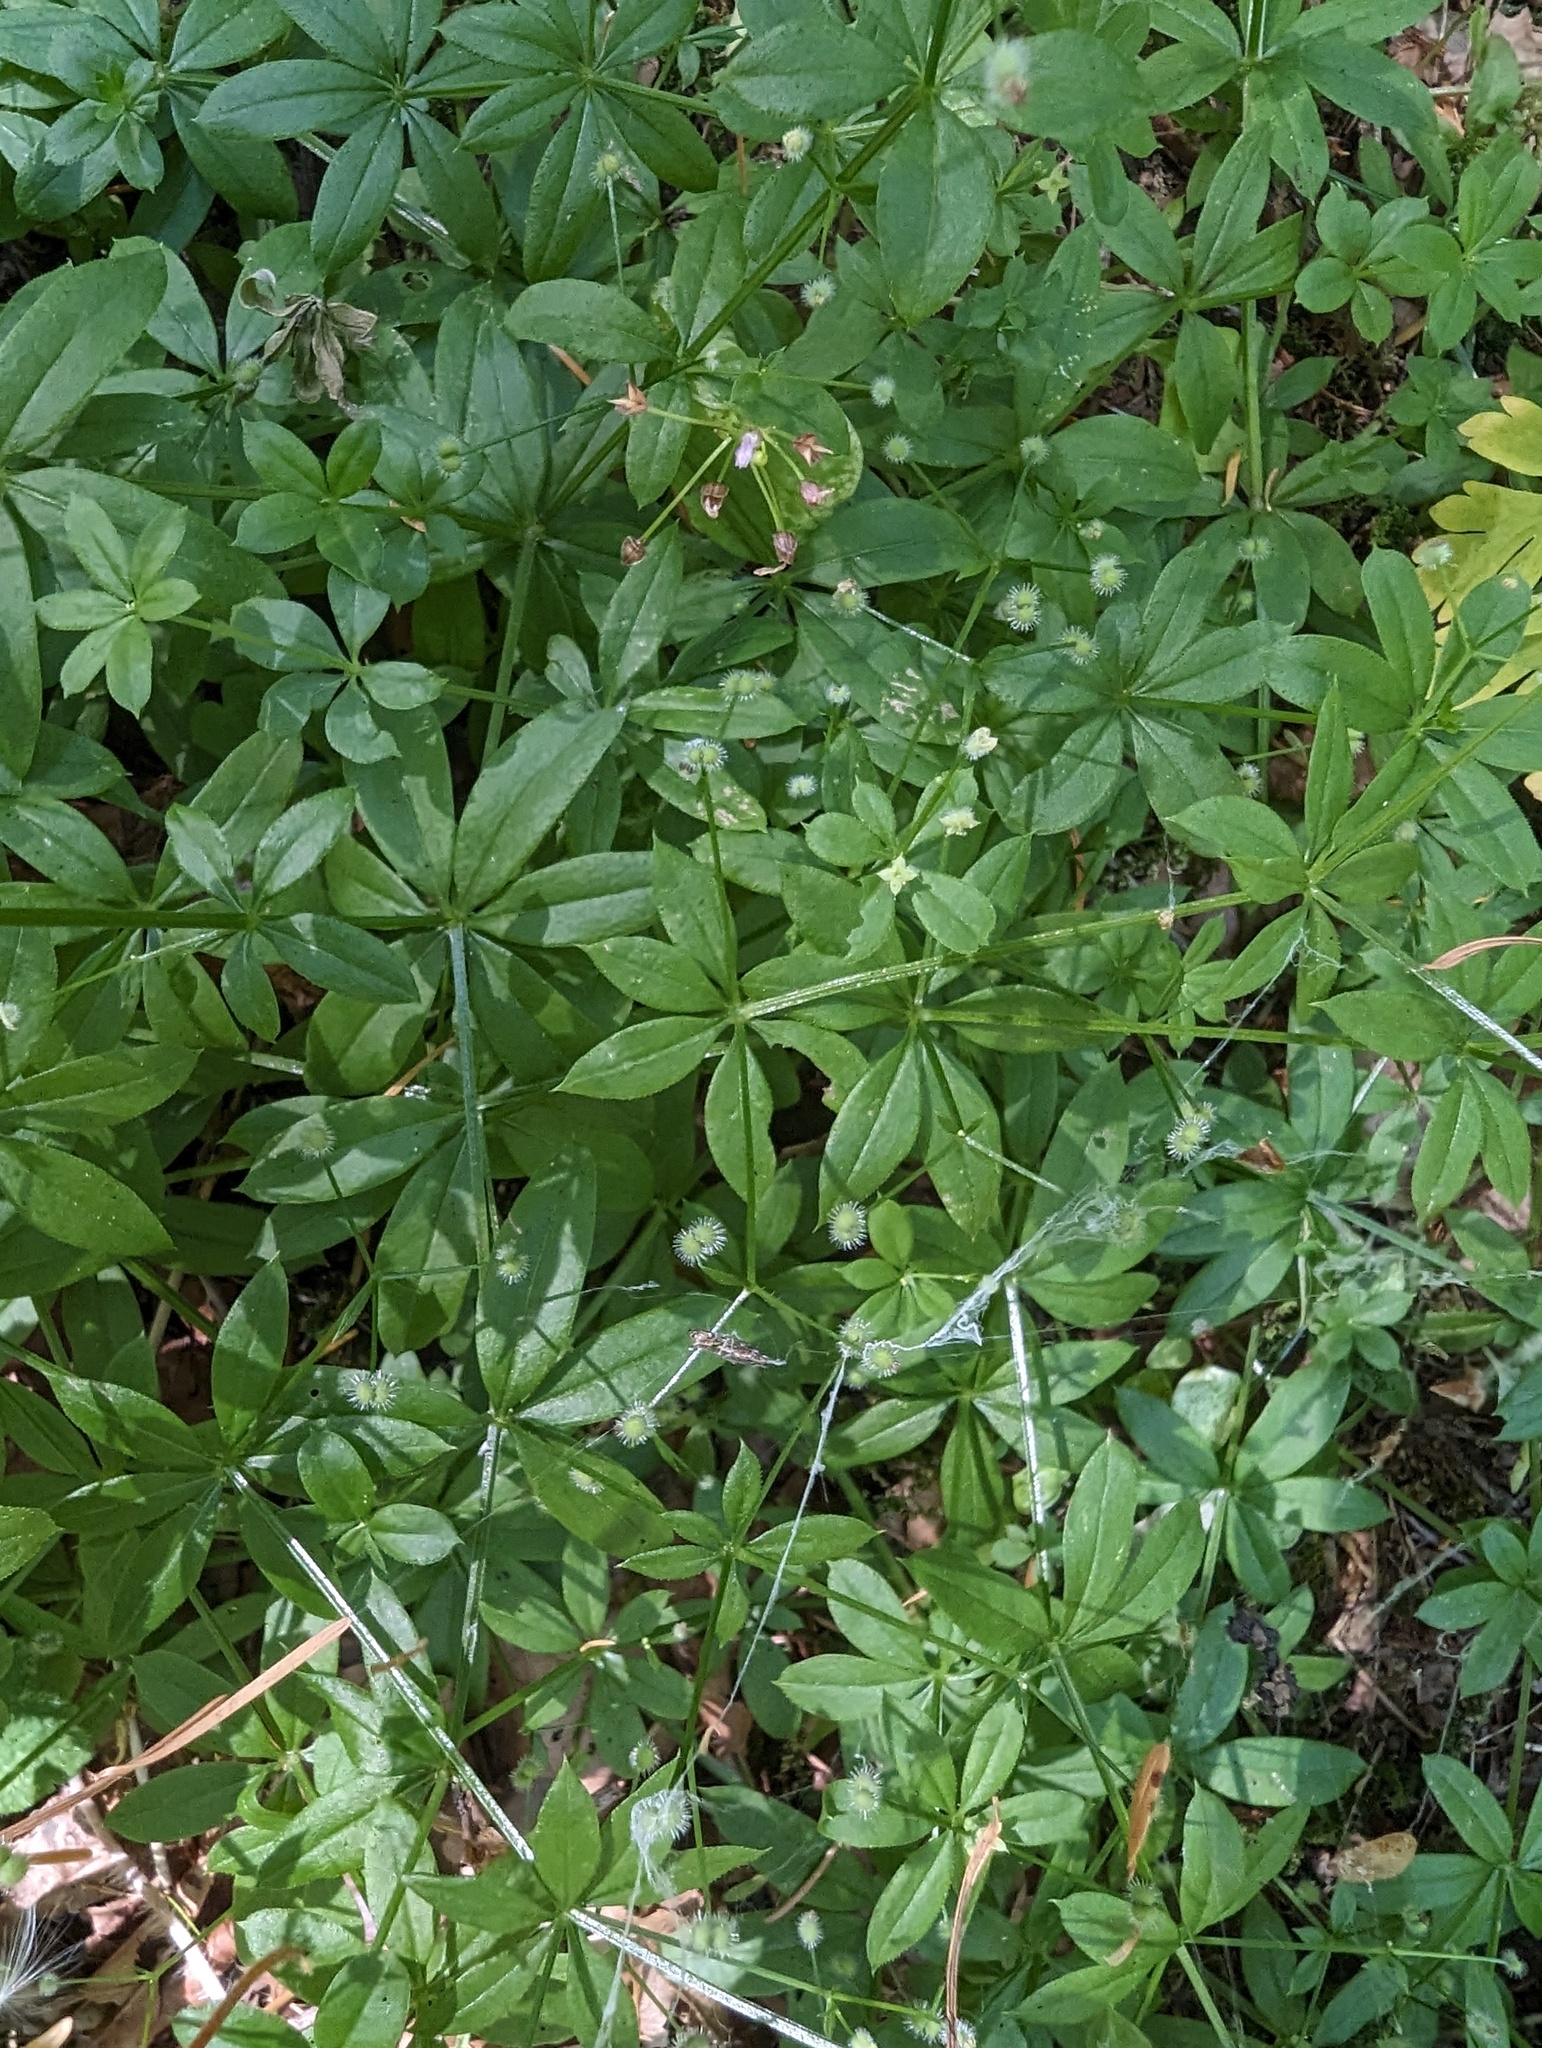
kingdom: Plantae
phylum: Tracheophyta
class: Magnoliopsida
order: Gentianales
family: Rubiaceae
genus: Galium
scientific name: Galium triflorum
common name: Fragrant bedstraw
